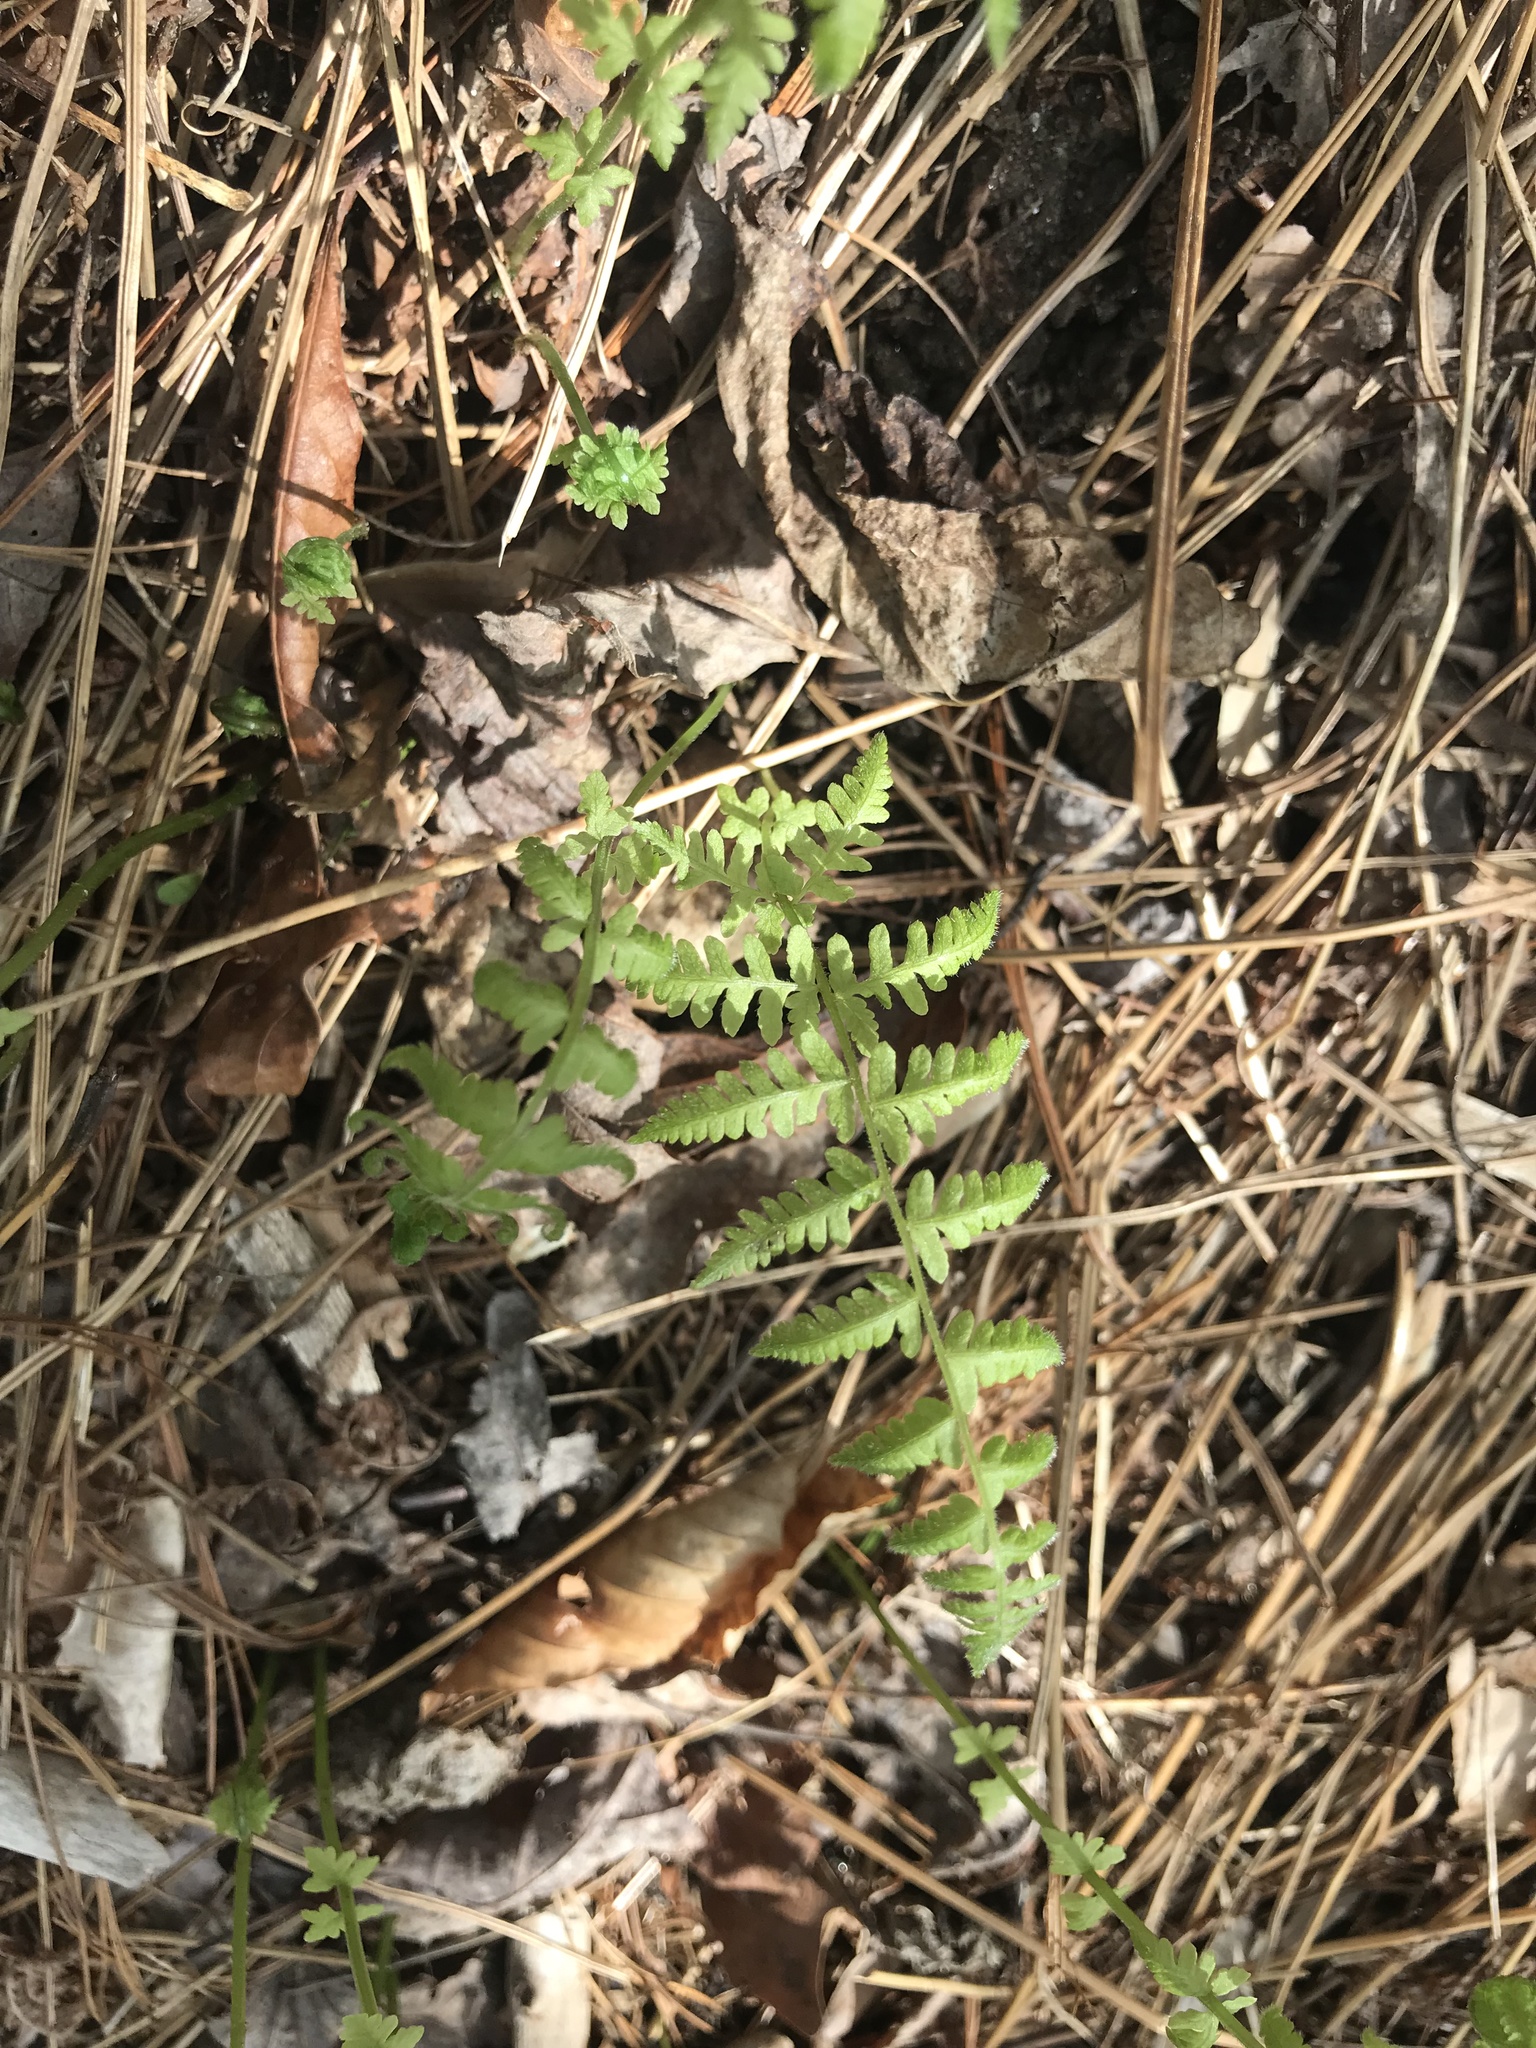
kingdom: Plantae
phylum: Tracheophyta
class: Polypodiopsida
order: Polypodiales
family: Thelypteridaceae
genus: Amauropelta
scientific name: Amauropelta noveboracensis
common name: New york fern
